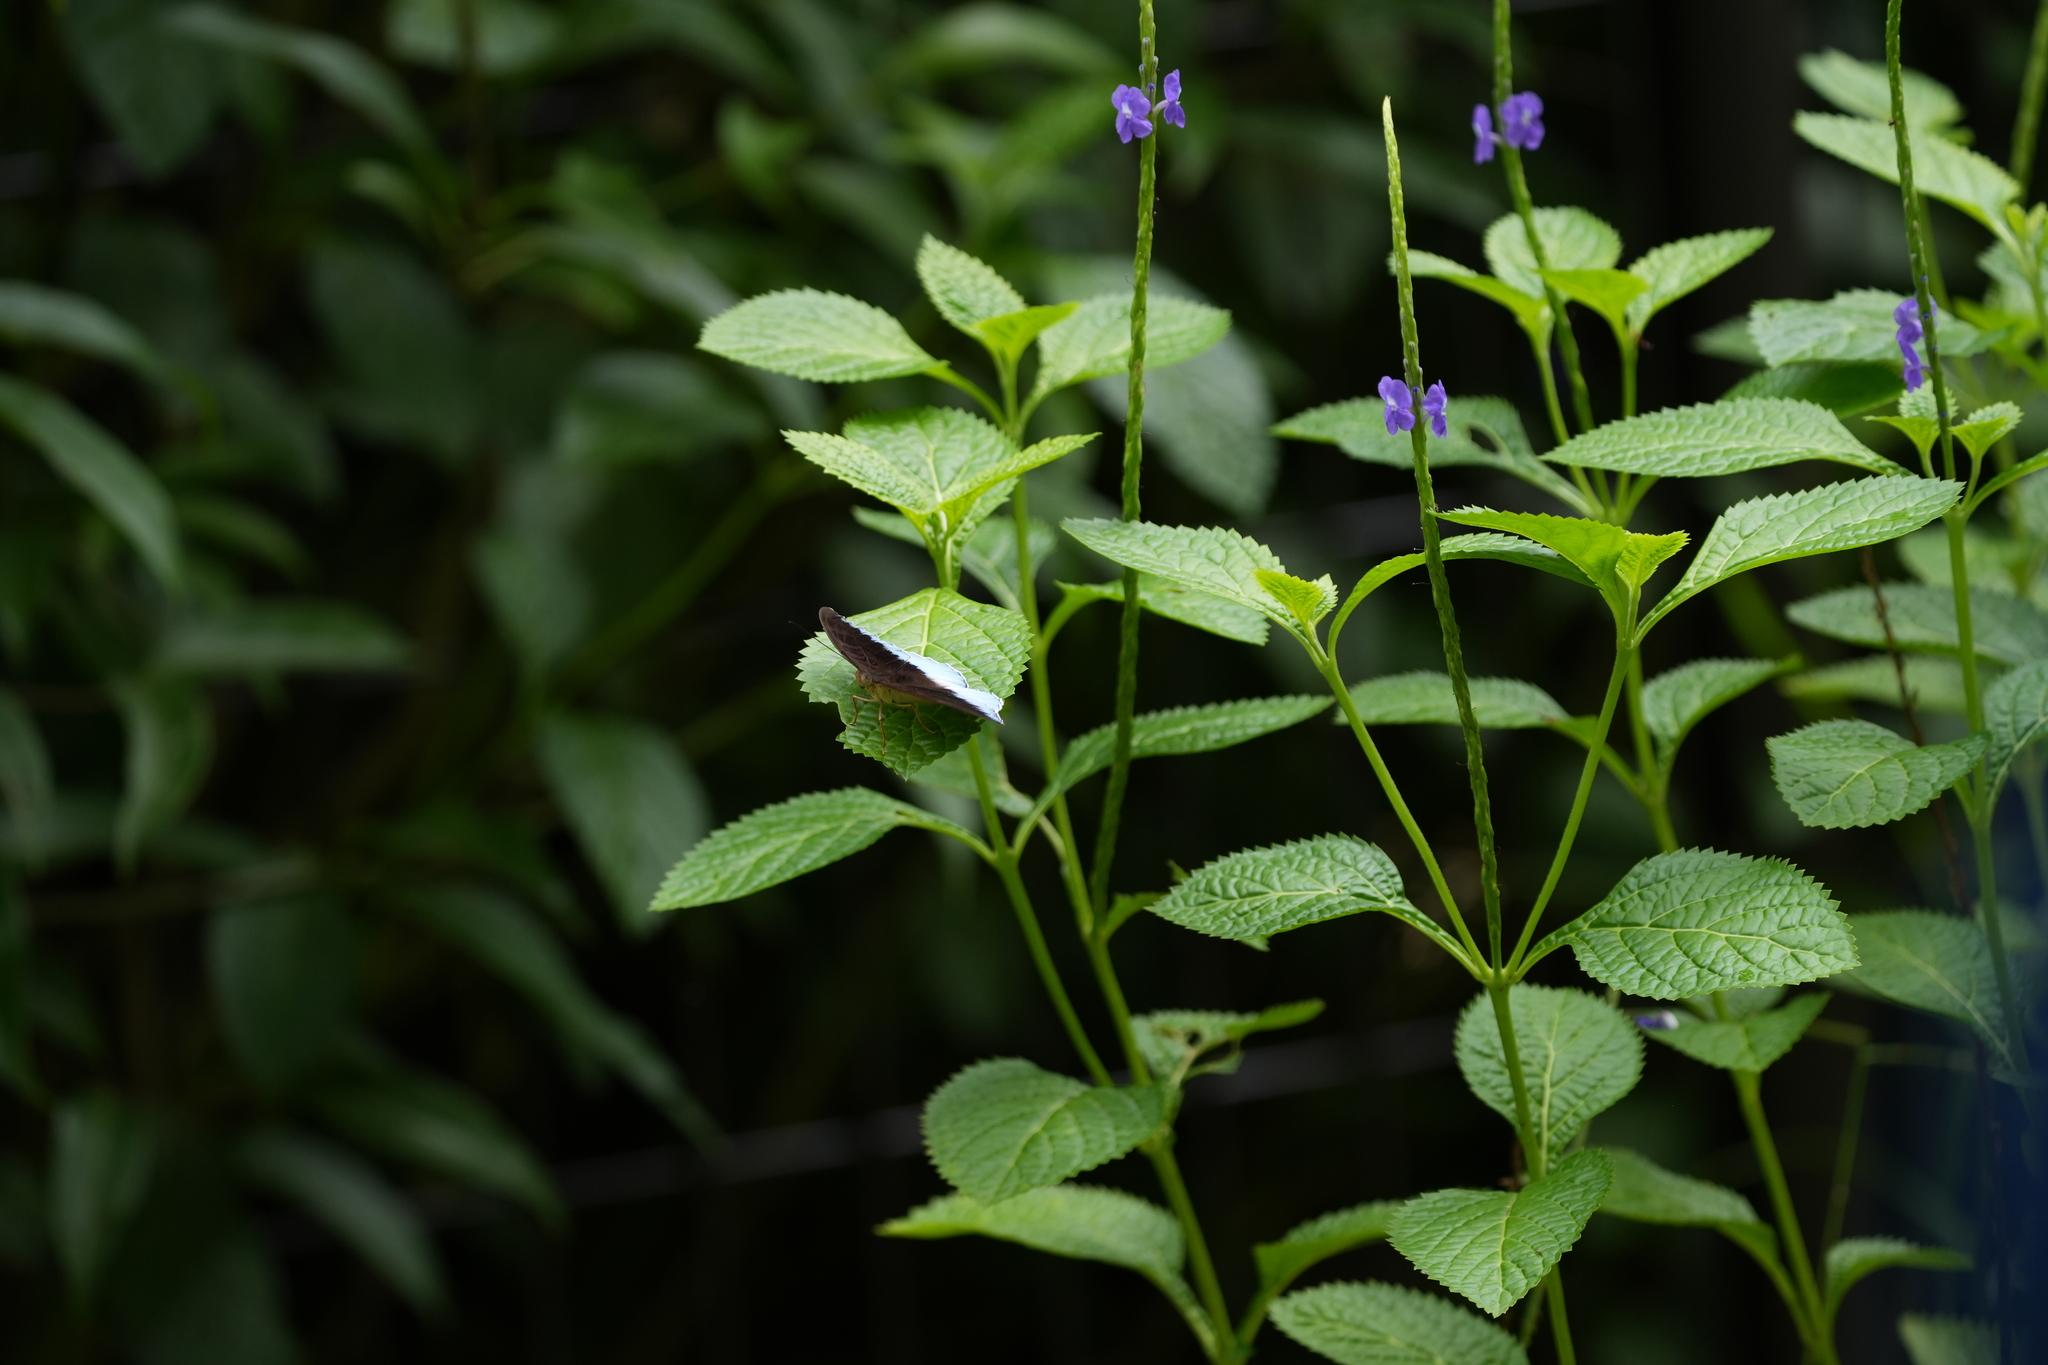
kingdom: Animalia
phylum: Arthropoda
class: Insecta
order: Lepidoptera
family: Nymphalidae
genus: Tanaecia
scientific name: Tanaecia iapis
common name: Horsfield's baron
